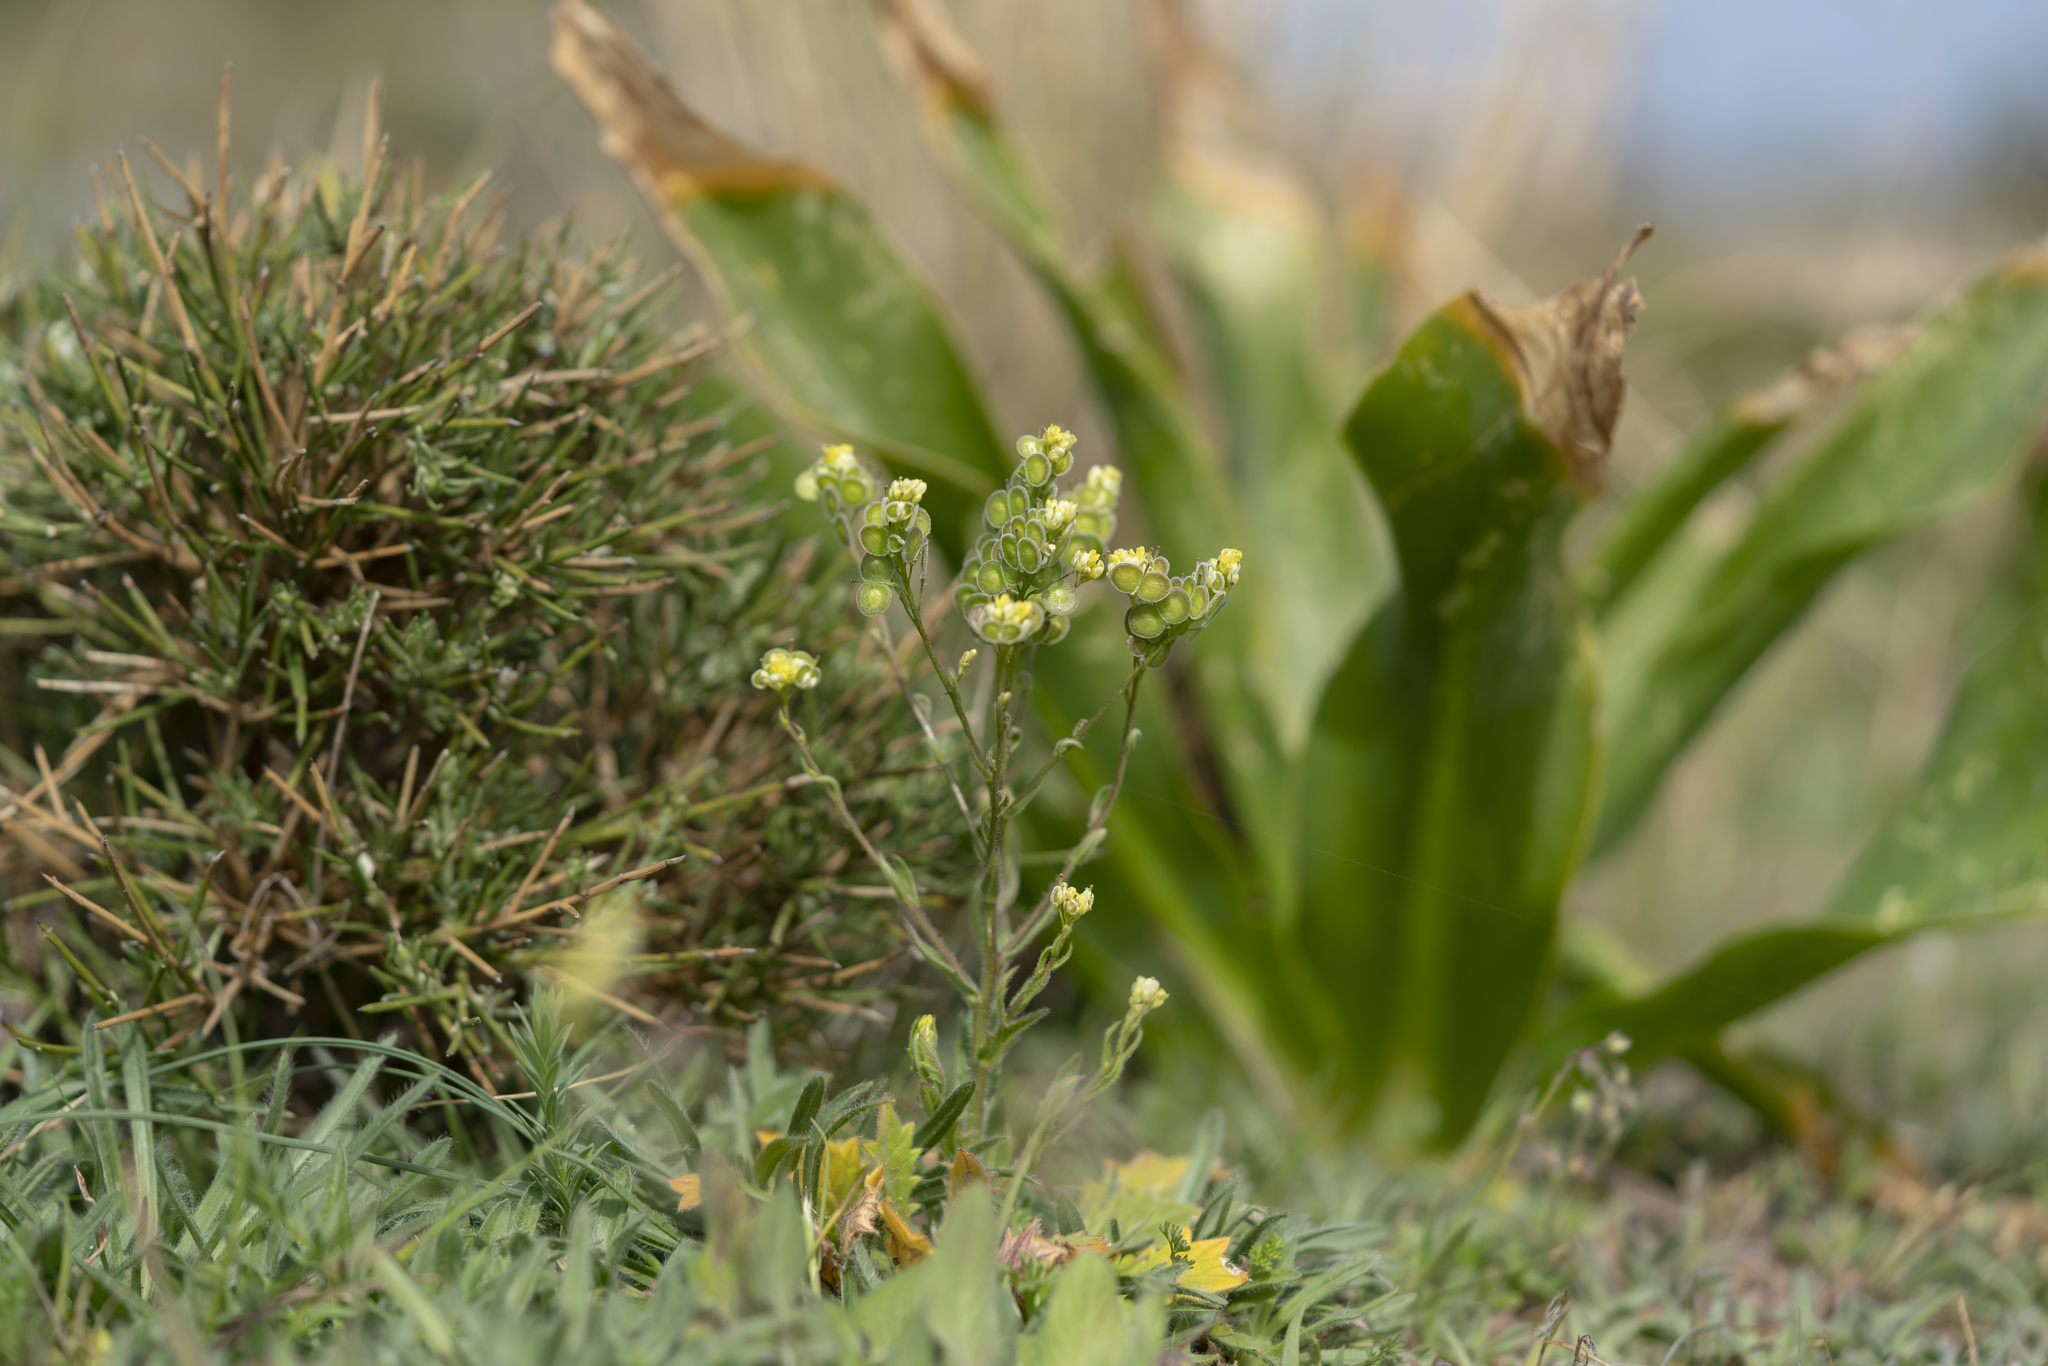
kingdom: Plantae
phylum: Tracheophyta
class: Magnoliopsida
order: Brassicales
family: Brassicaceae
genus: Biscutella
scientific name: Biscutella didyma
